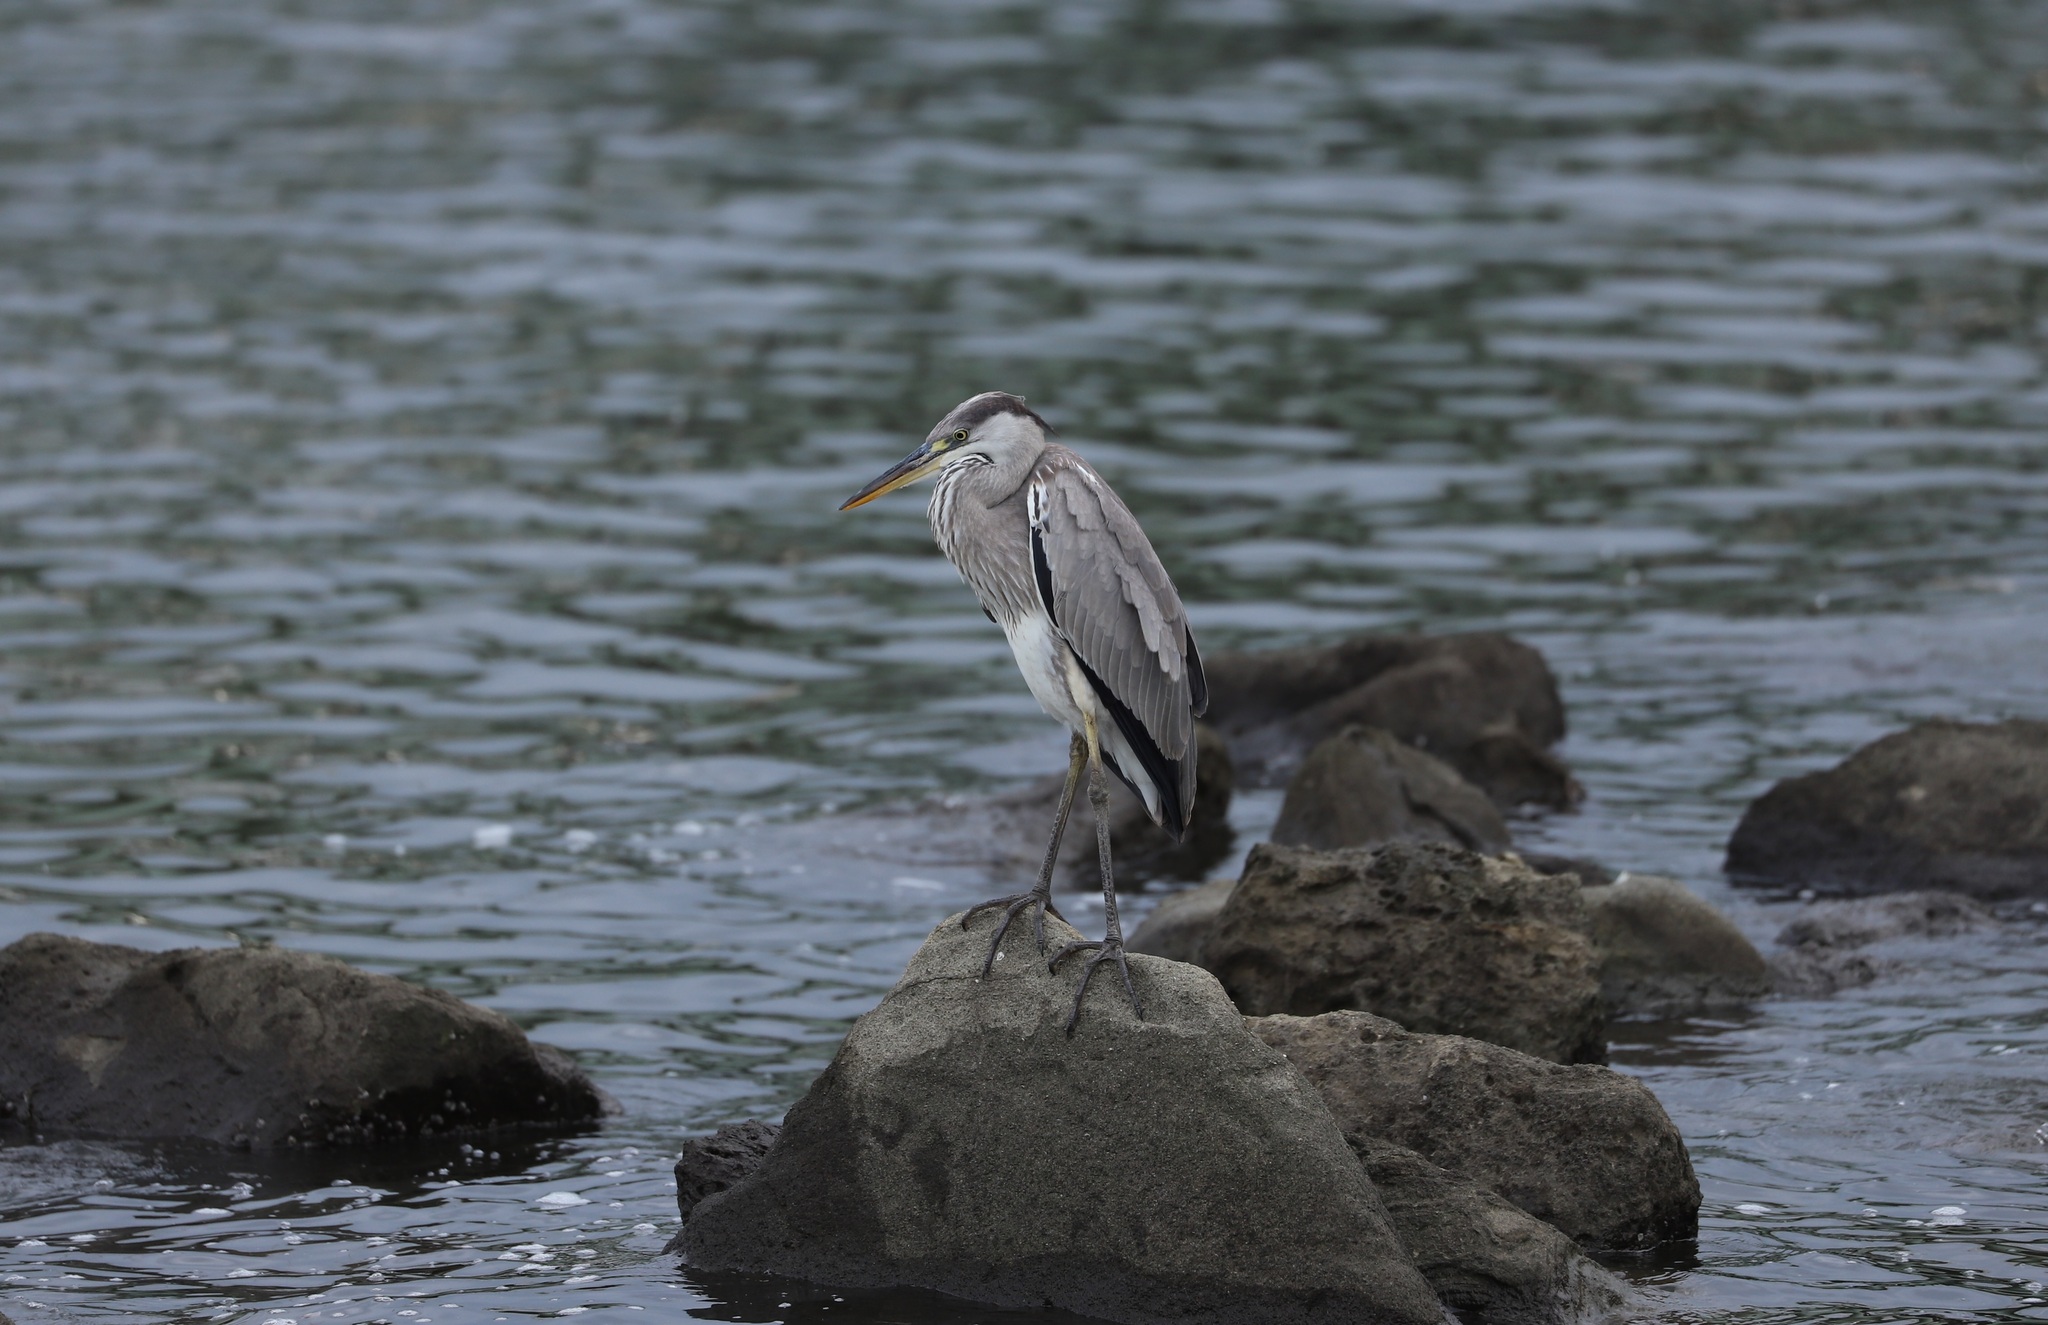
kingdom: Animalia
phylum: Chordata
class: Aves
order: Pelecaniformes
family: Ardeidae
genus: Ardea
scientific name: Ardea cinerea
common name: Grey heron
